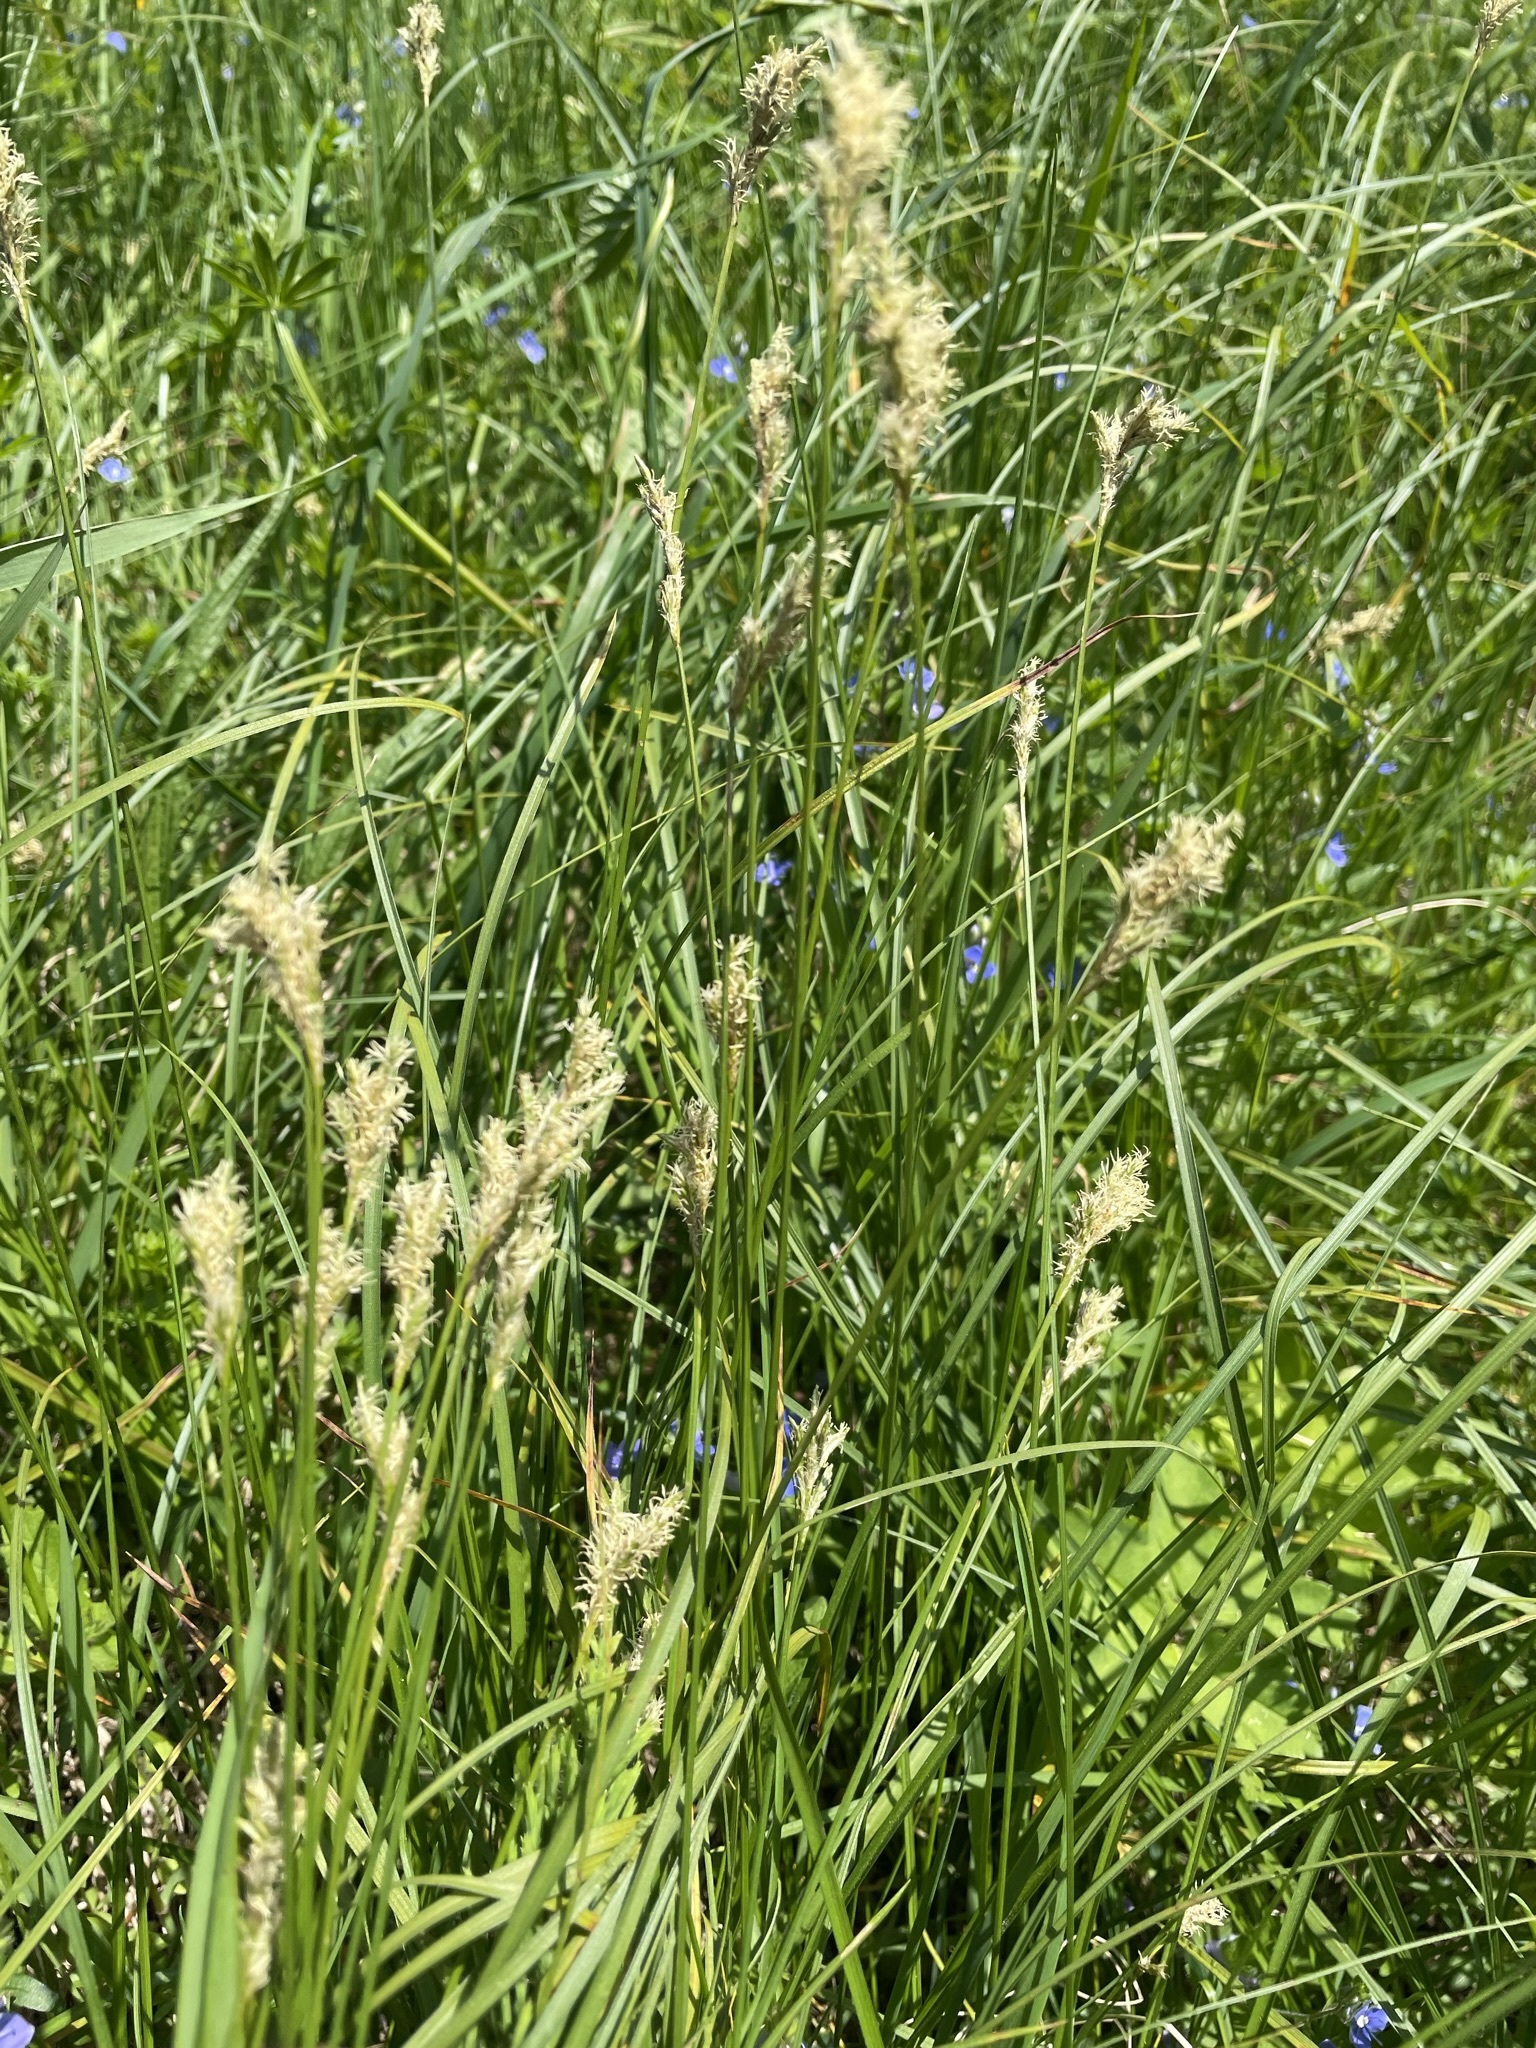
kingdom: Plantae
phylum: Tracheophyta
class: Liliopsida
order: Poales
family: Cyperaceae
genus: Carex
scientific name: Carex brizoides
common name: Quaking-grass sedge
